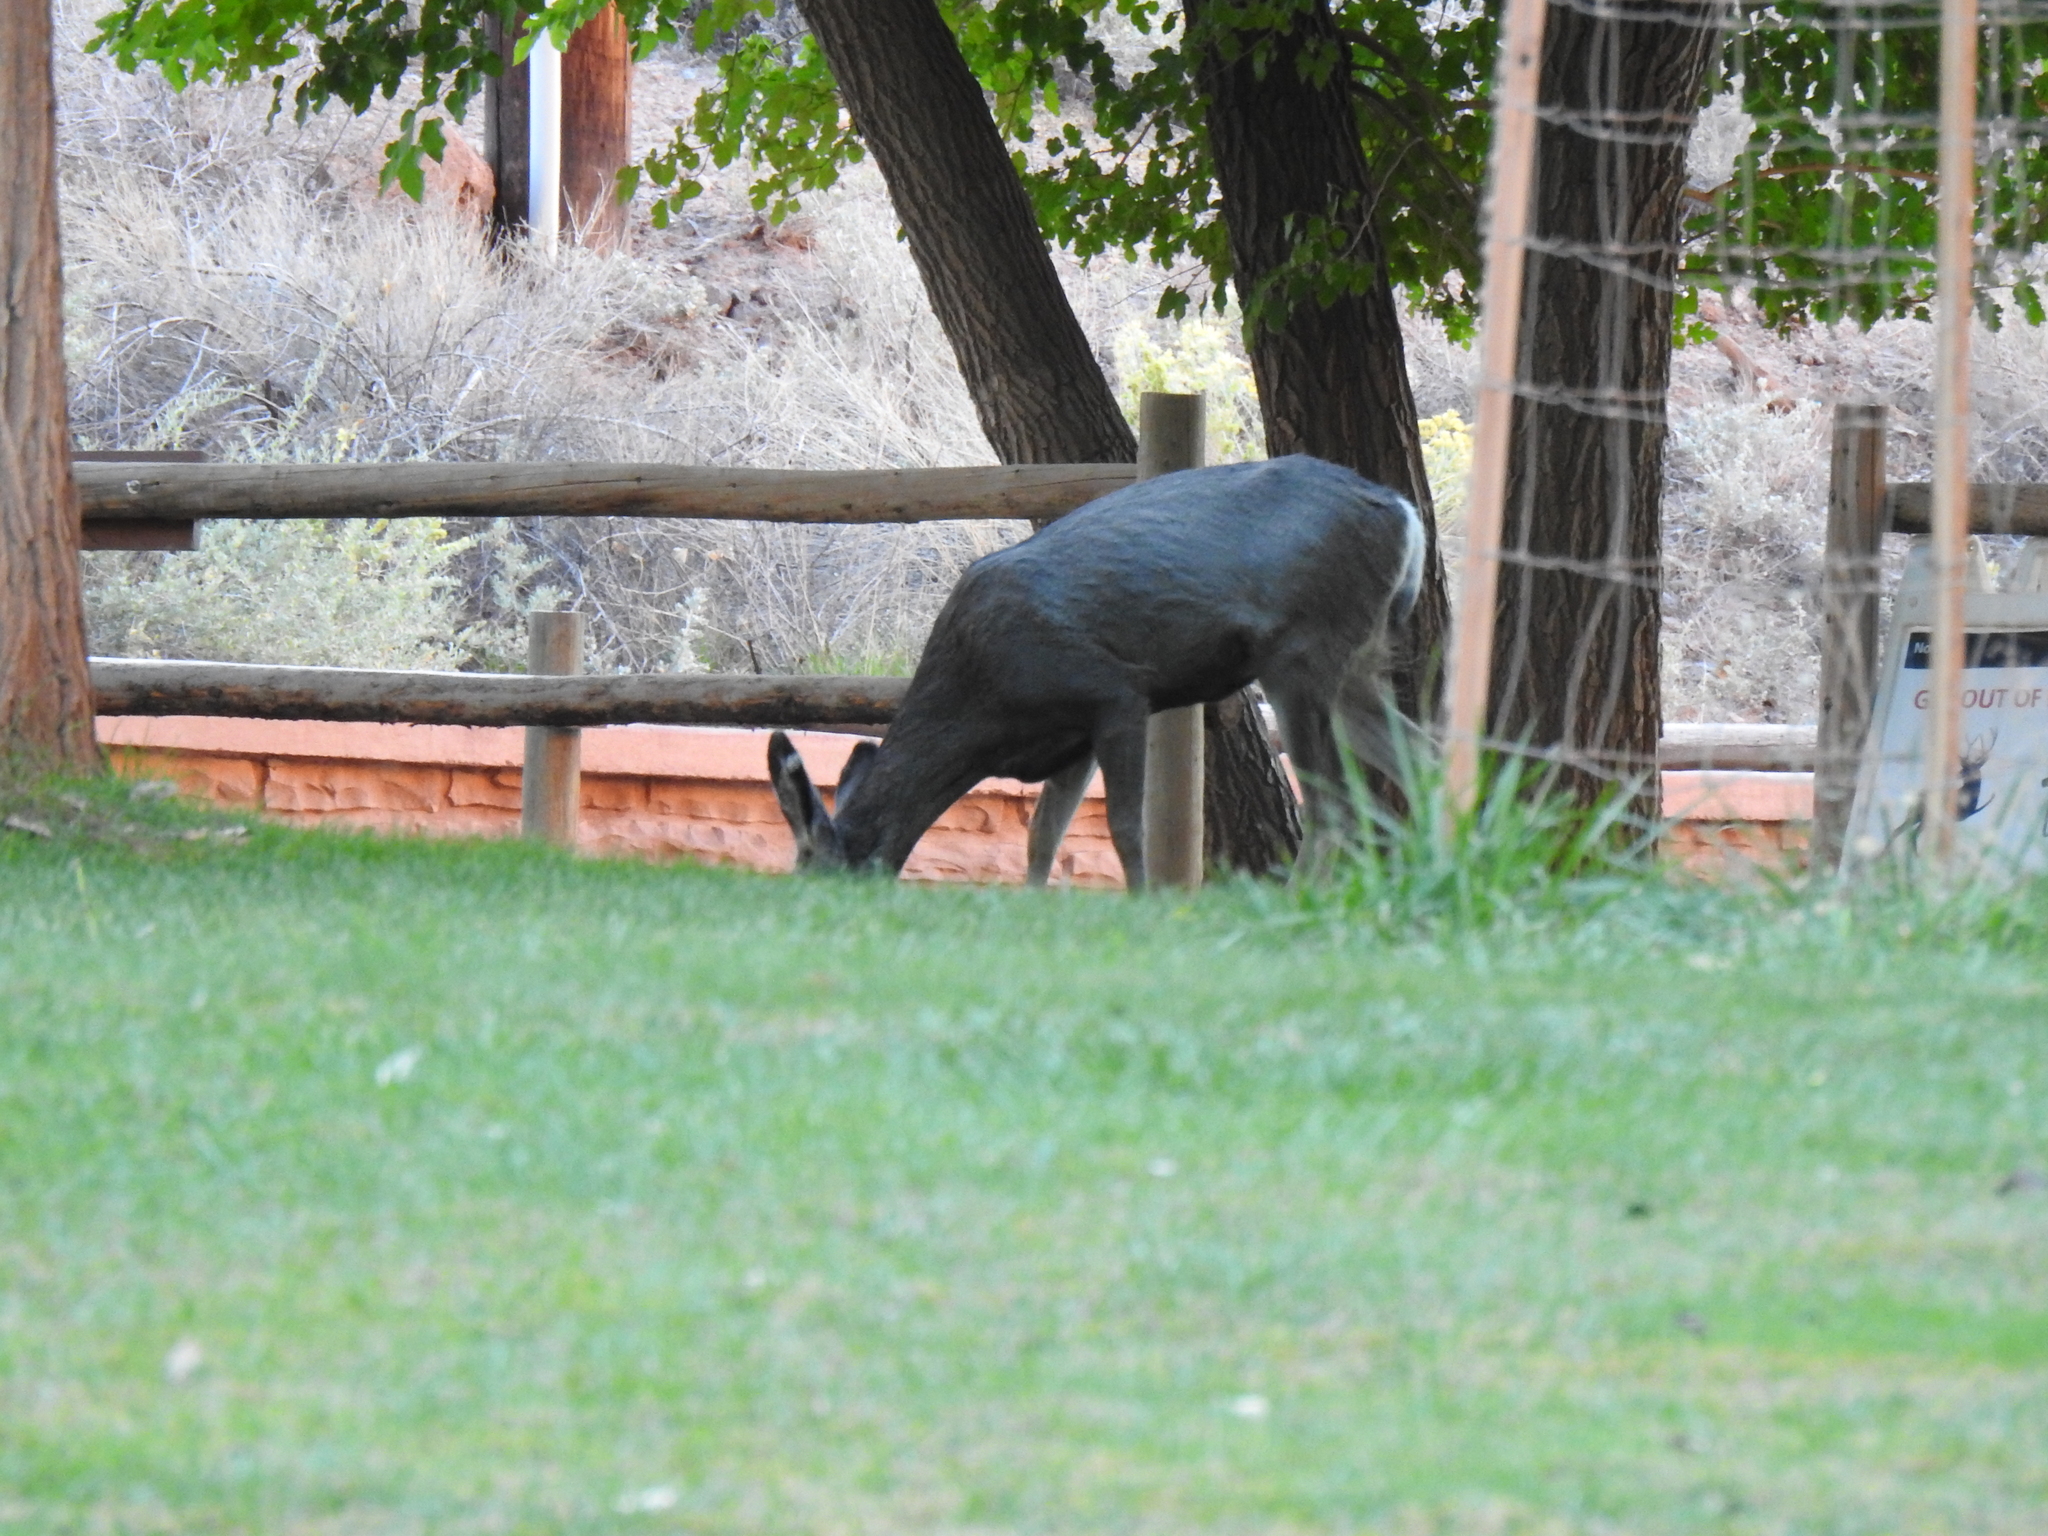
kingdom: Animalia
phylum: Chordata
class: Mammalia
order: Artiodactyla
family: Cervidae
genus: Odocoileus
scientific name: Odocoileus hemionus
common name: Mule deer
